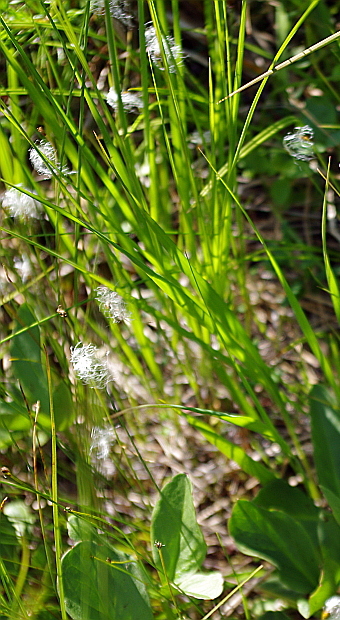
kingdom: Plantae
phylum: Tracheophyta
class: Liliopsida
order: Poales
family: Cyperaceae
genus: Trichophorum
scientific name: Trichophorum alpinum
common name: Alpine bulrush
